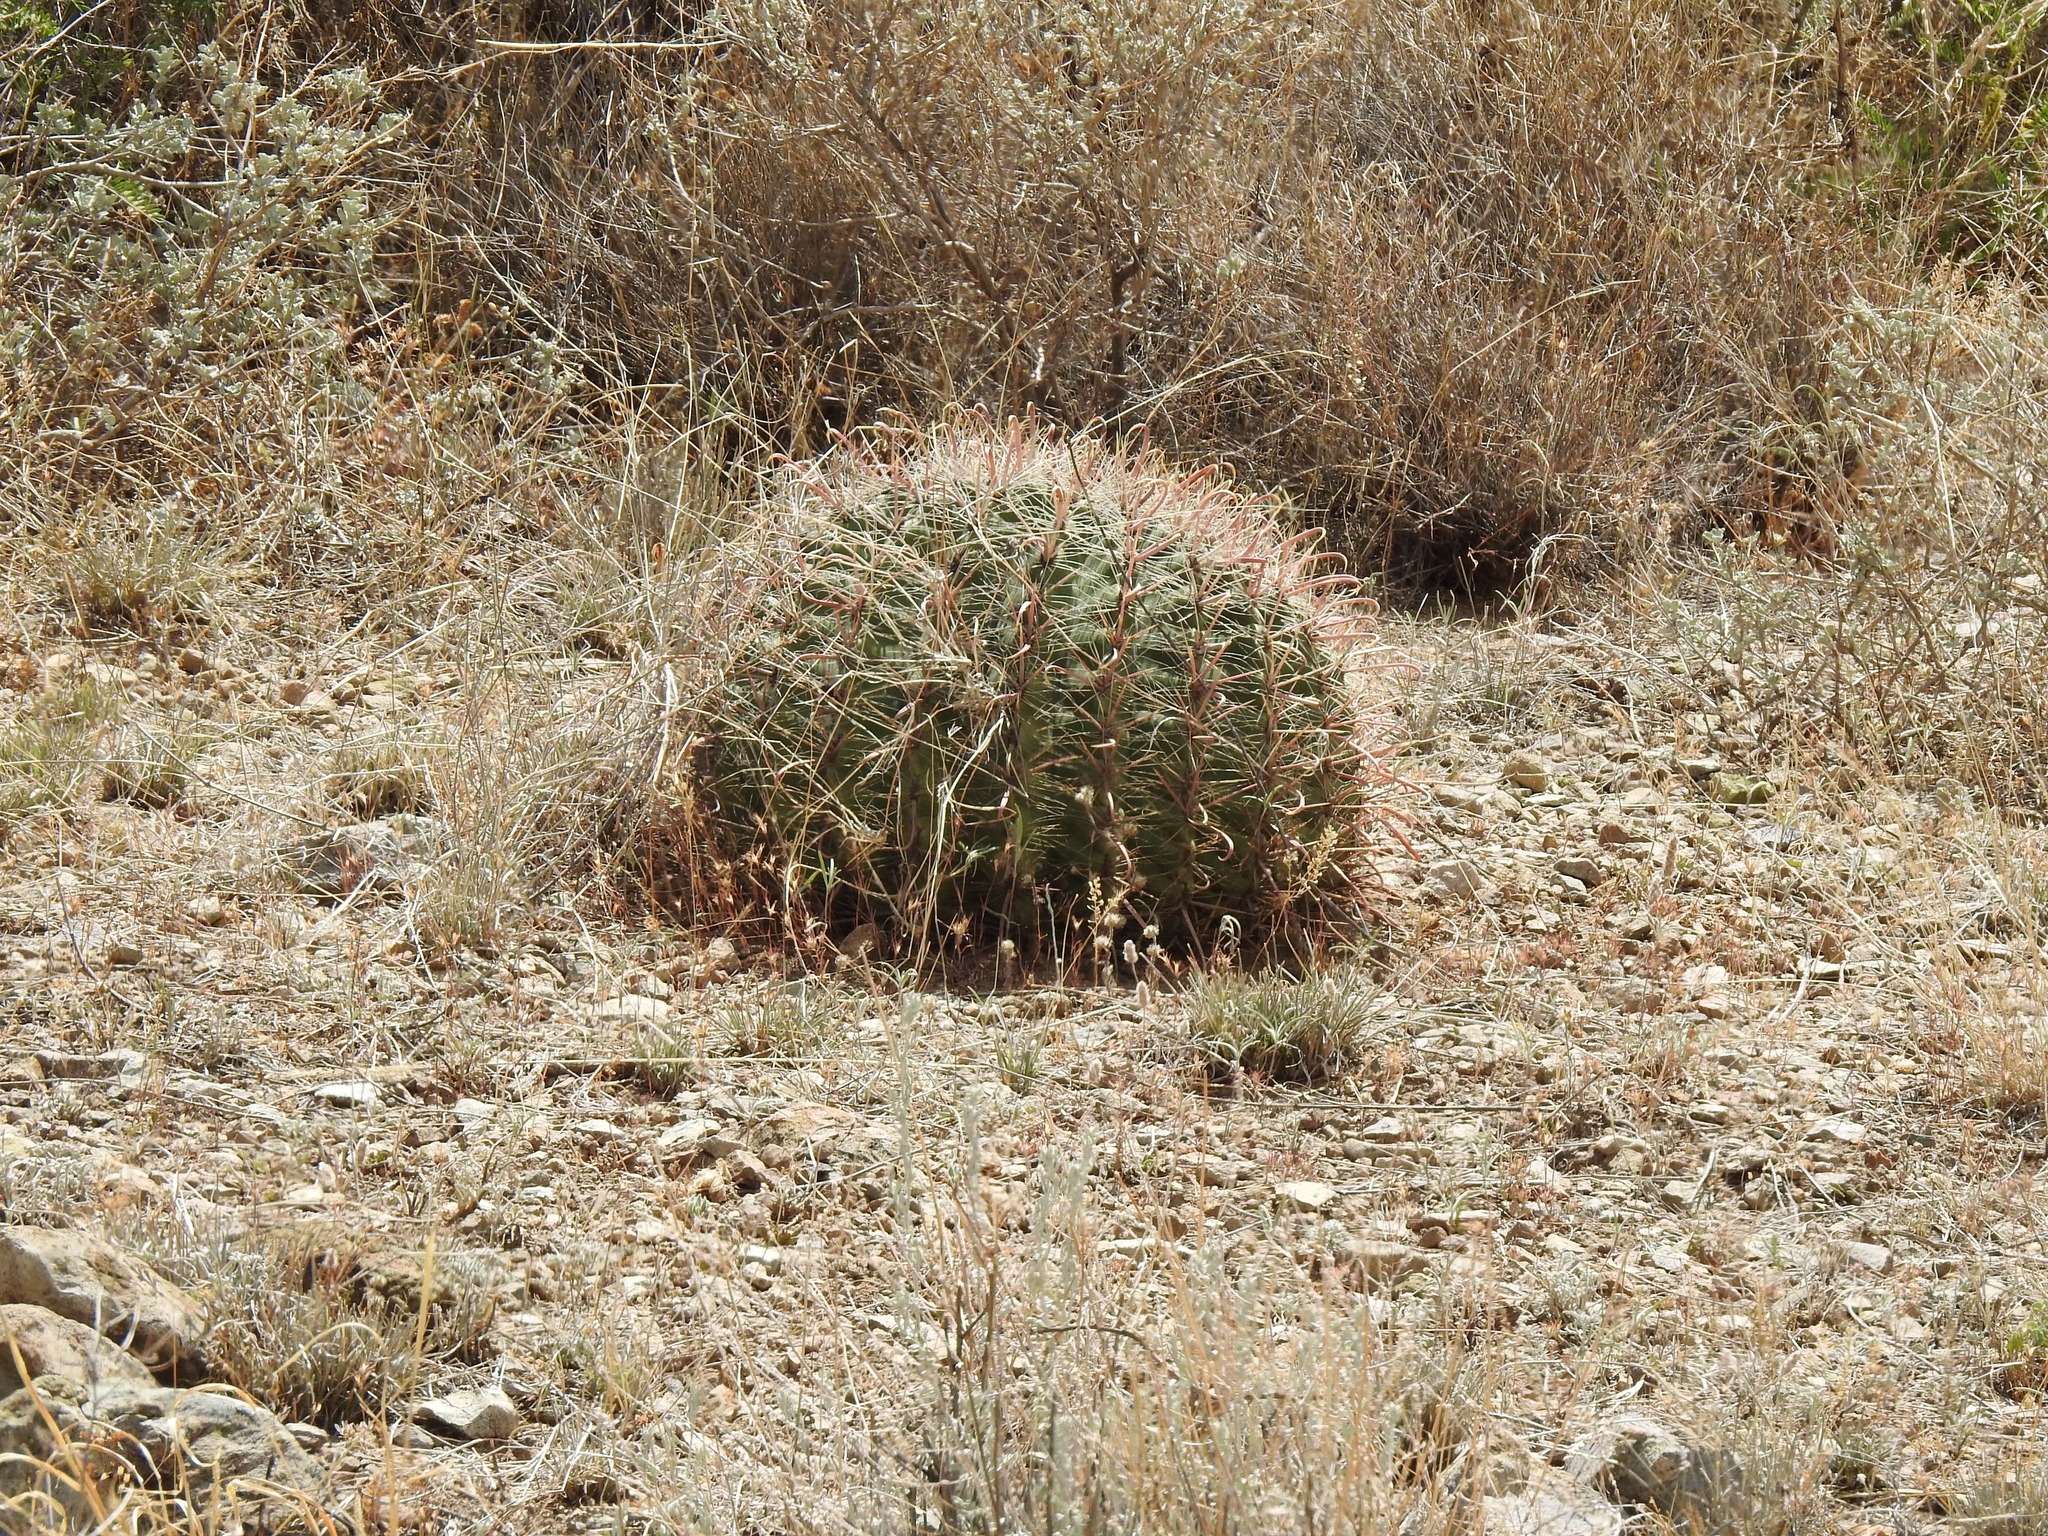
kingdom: Plantae
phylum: Tracheophyta
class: Magnoliopsida
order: Caryophyllales
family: Cactaceae
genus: Ferocactus
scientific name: Ferocactus wislizeni
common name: Candy barrel cactus
